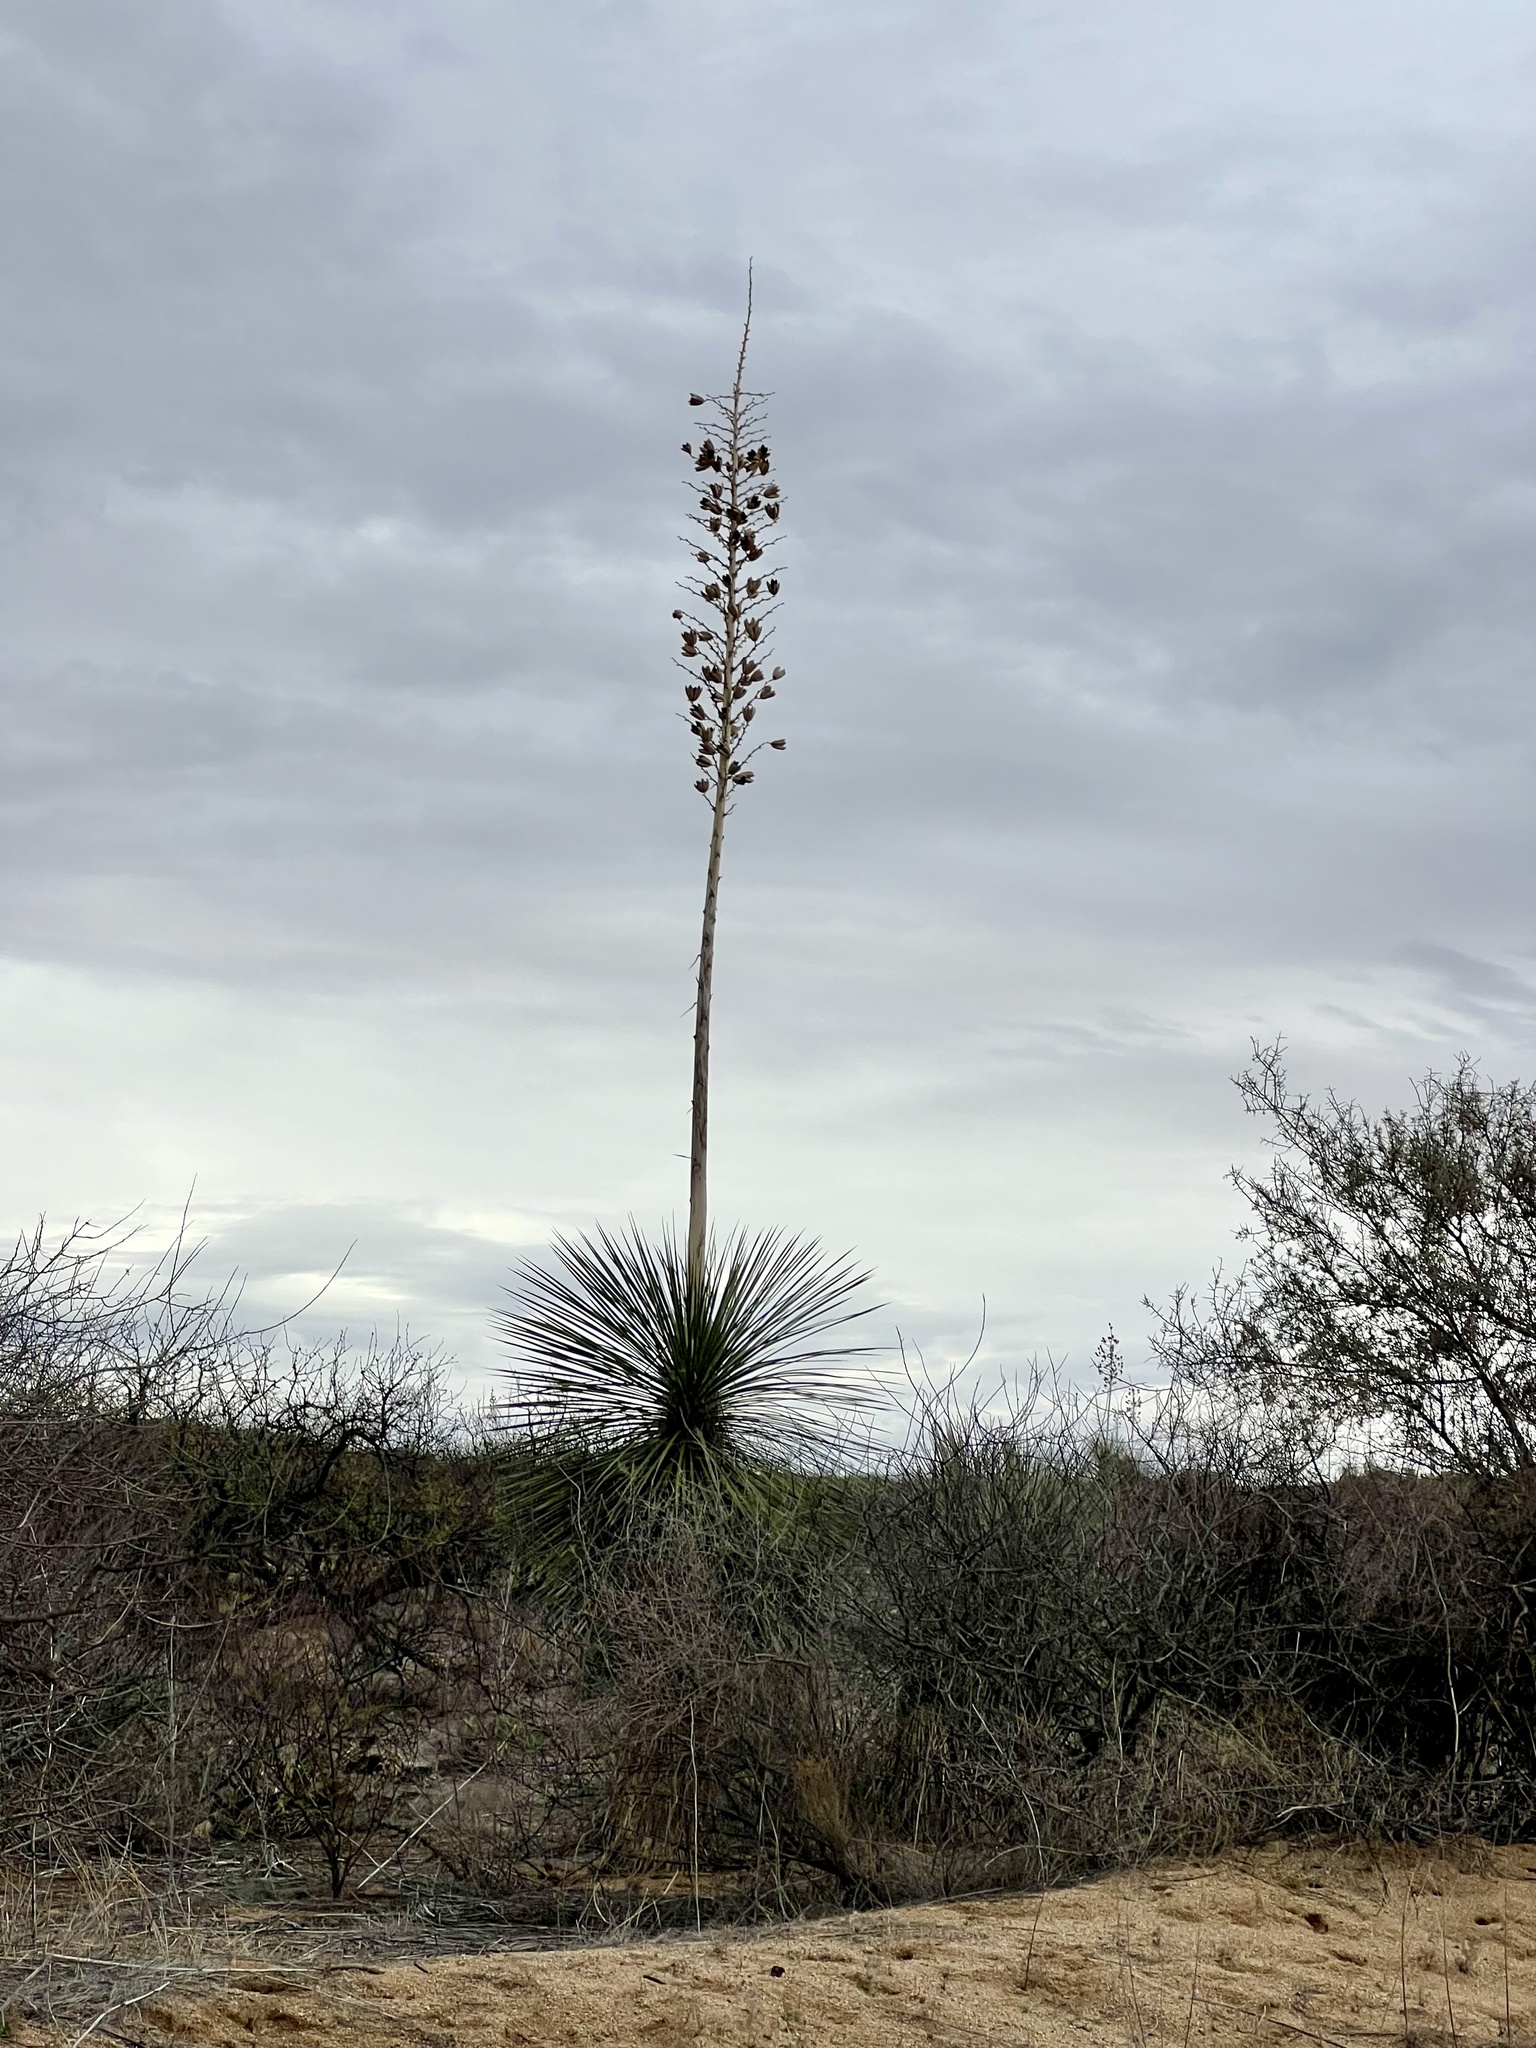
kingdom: Plantae
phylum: Tracheophyta
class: Liliopsida
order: Asparagales
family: Asparagaceae
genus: Yucca
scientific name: Yucca elata
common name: Palmella
